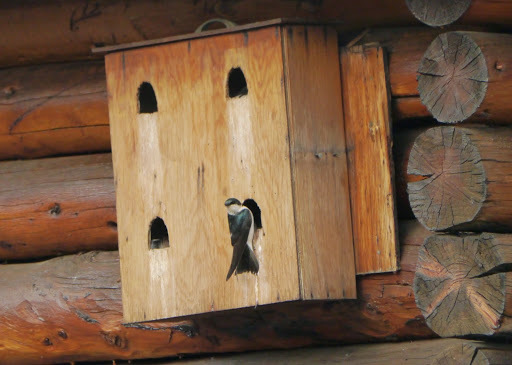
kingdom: Animalia
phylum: Chordata
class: Aves
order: Passeriformes
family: Hirundinidae
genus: Tachycineta
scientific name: Tachycineta bicolor
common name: Tree swallow
